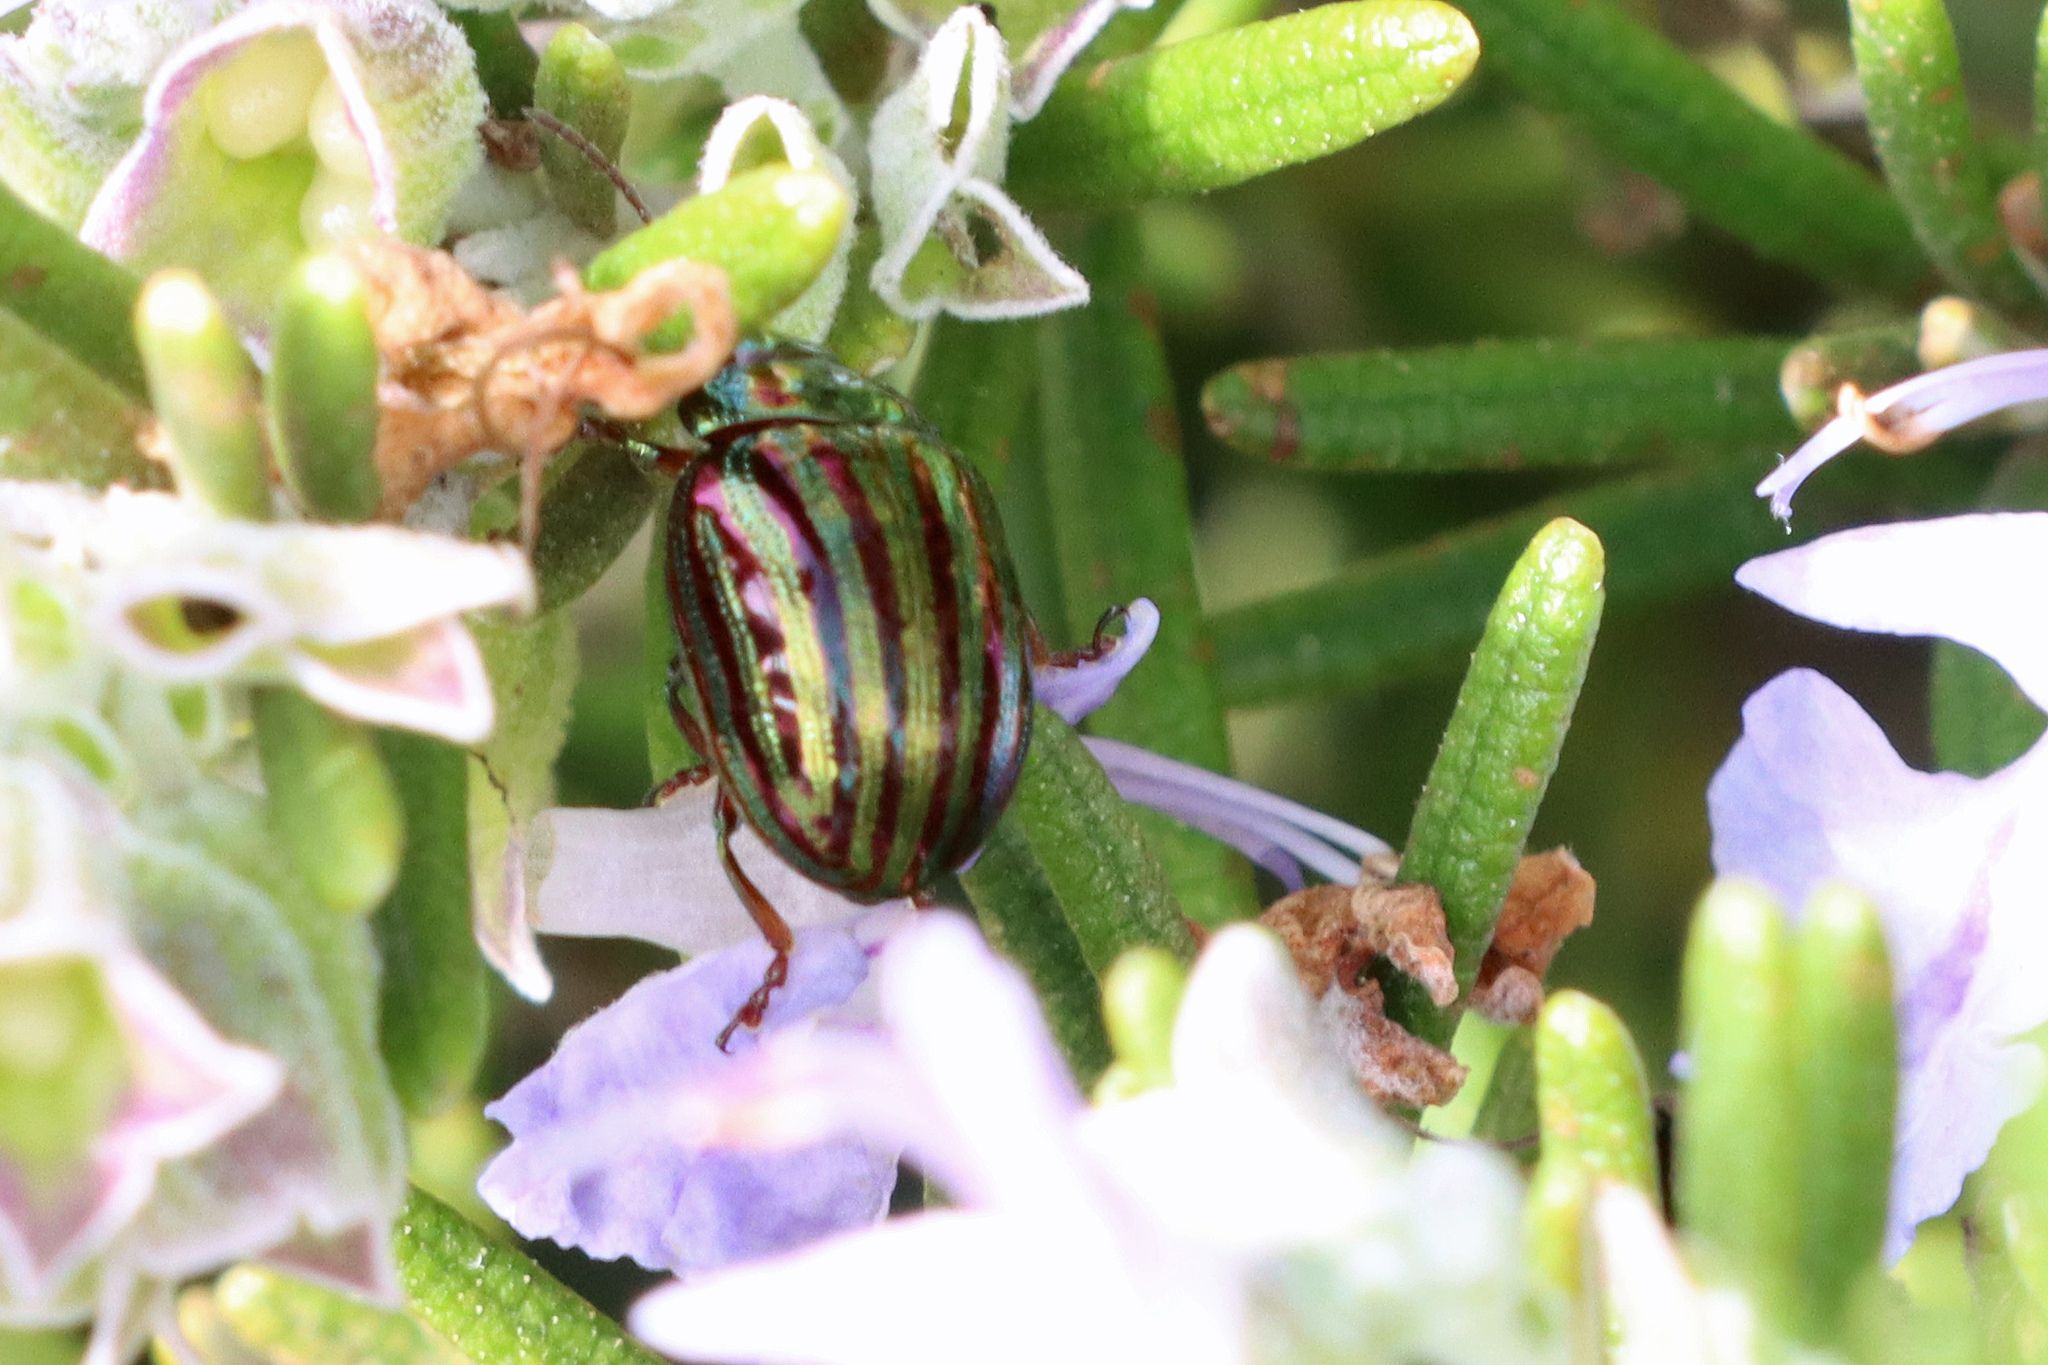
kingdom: Animalia
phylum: Arthropoda
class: Insecta
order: Coleoptera
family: Chrysomelidae
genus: Chrysolina
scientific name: Chrysolina americana
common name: Rosemary beetle
